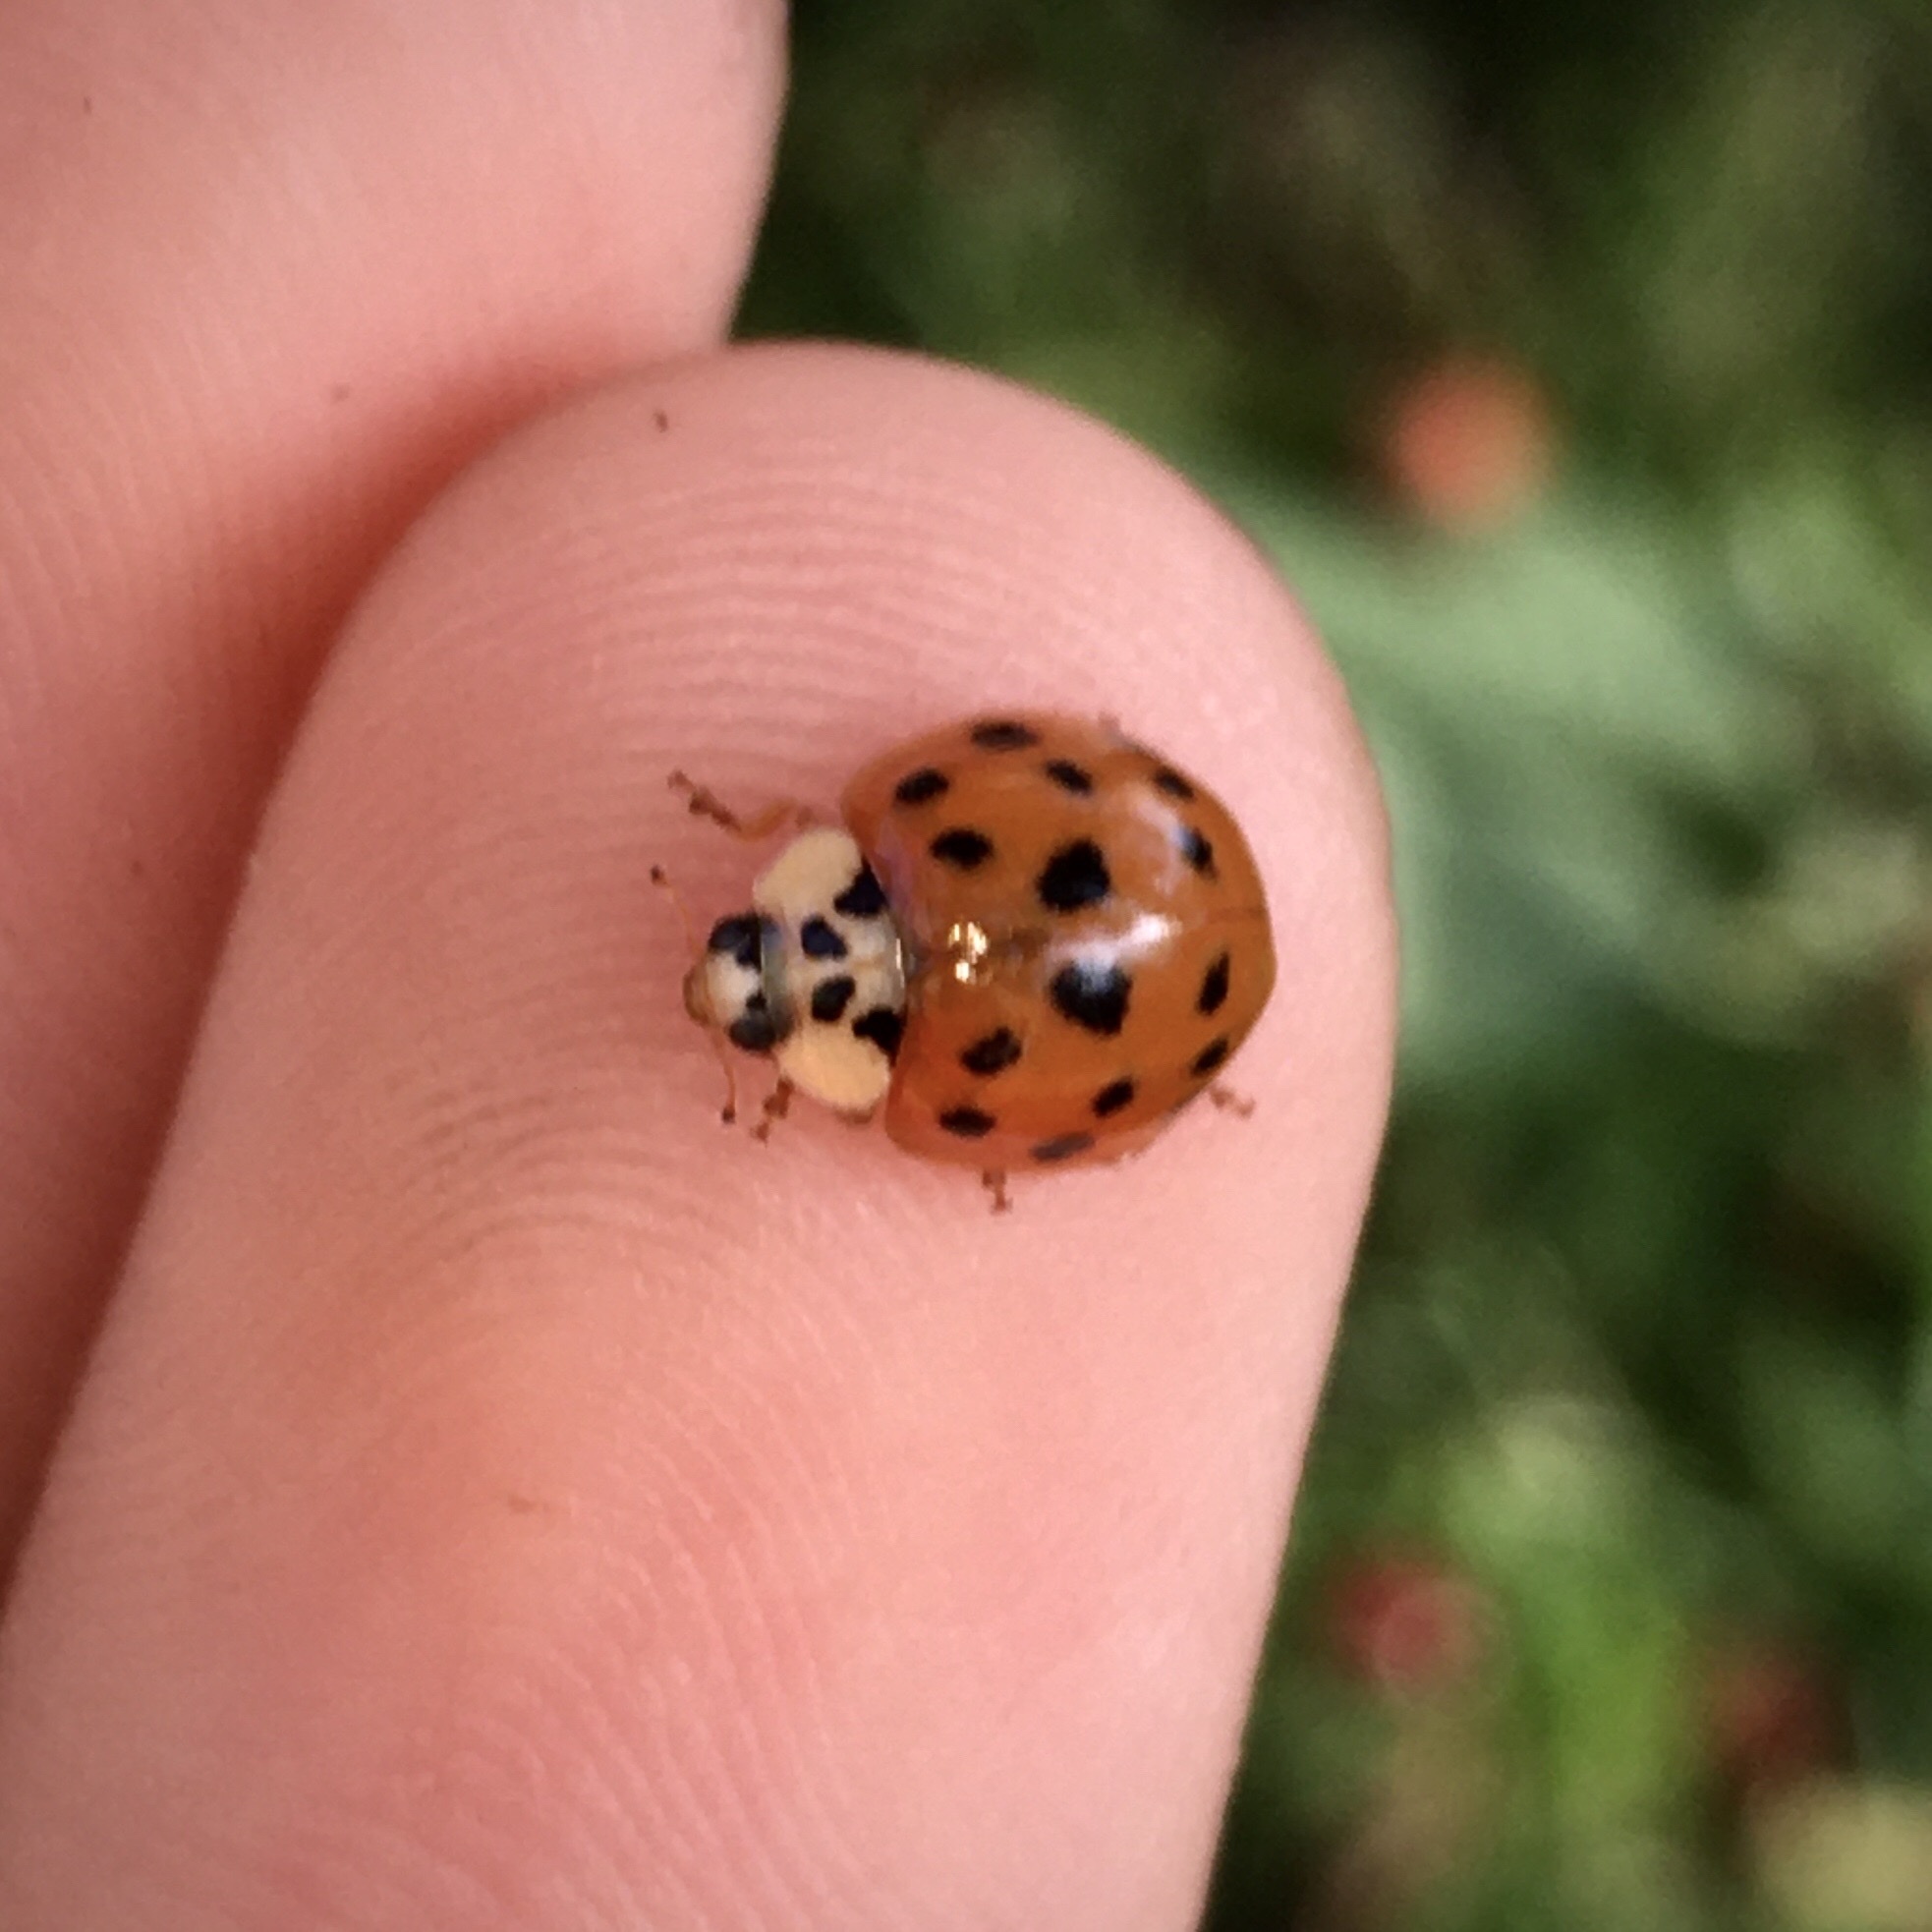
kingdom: Animalia
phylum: Arthropoda
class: Insecta
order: Coleoptera
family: Coccinellidae
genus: Harmonia
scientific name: Harmonia axyridis
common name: Harlequin ladybird
